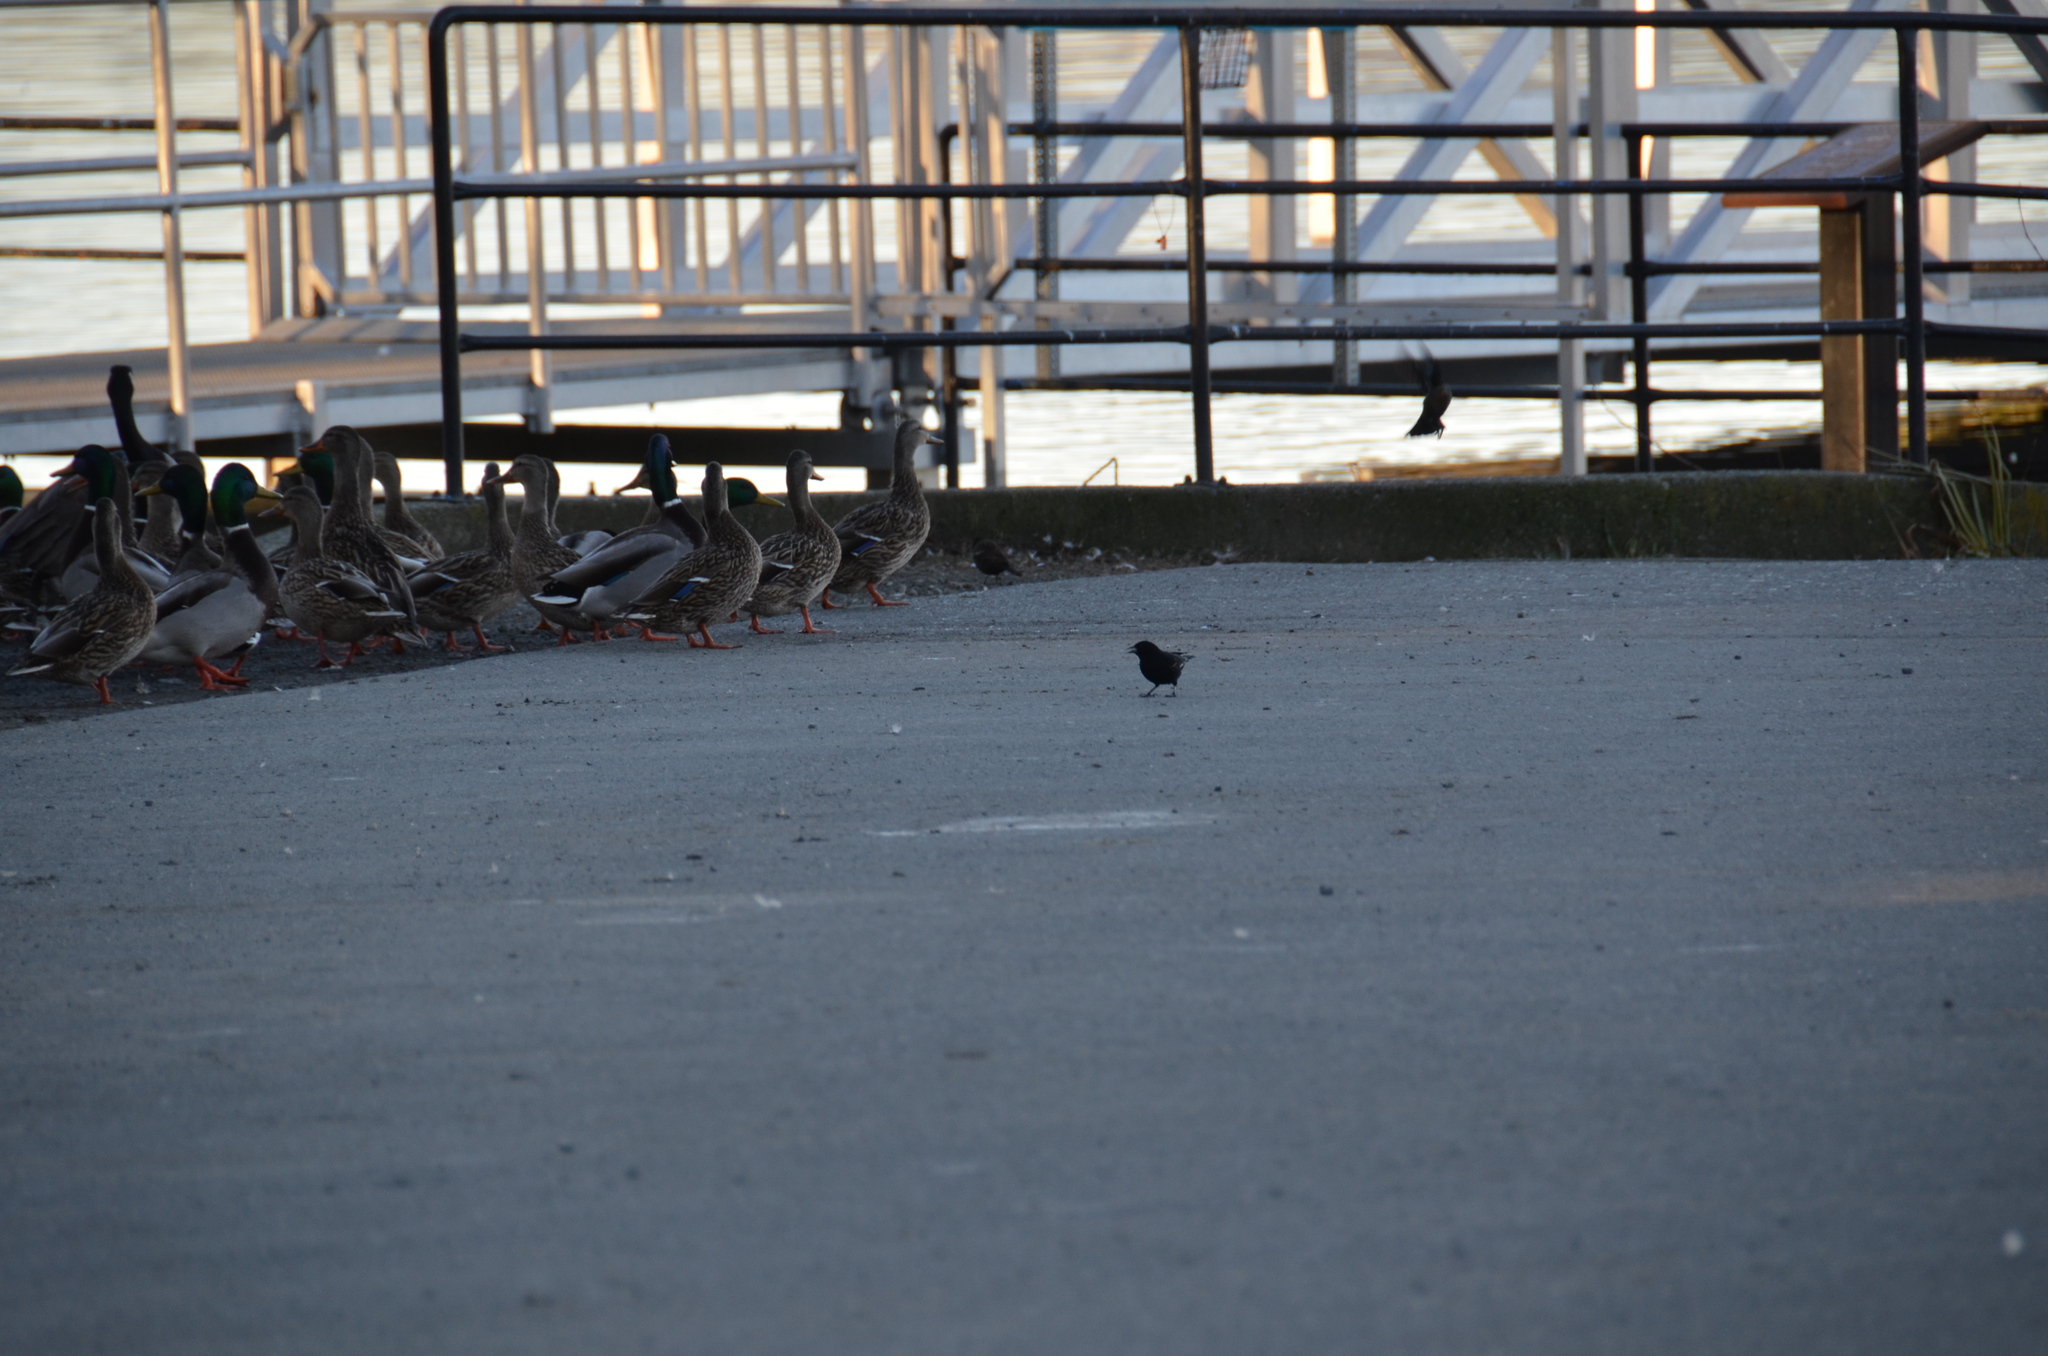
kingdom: Animalia
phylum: Chordata
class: Aves
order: Passeriformes
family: Icteridae
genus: Agelaius
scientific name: Agelaius phoeniceus
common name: Red-winged blackbird
